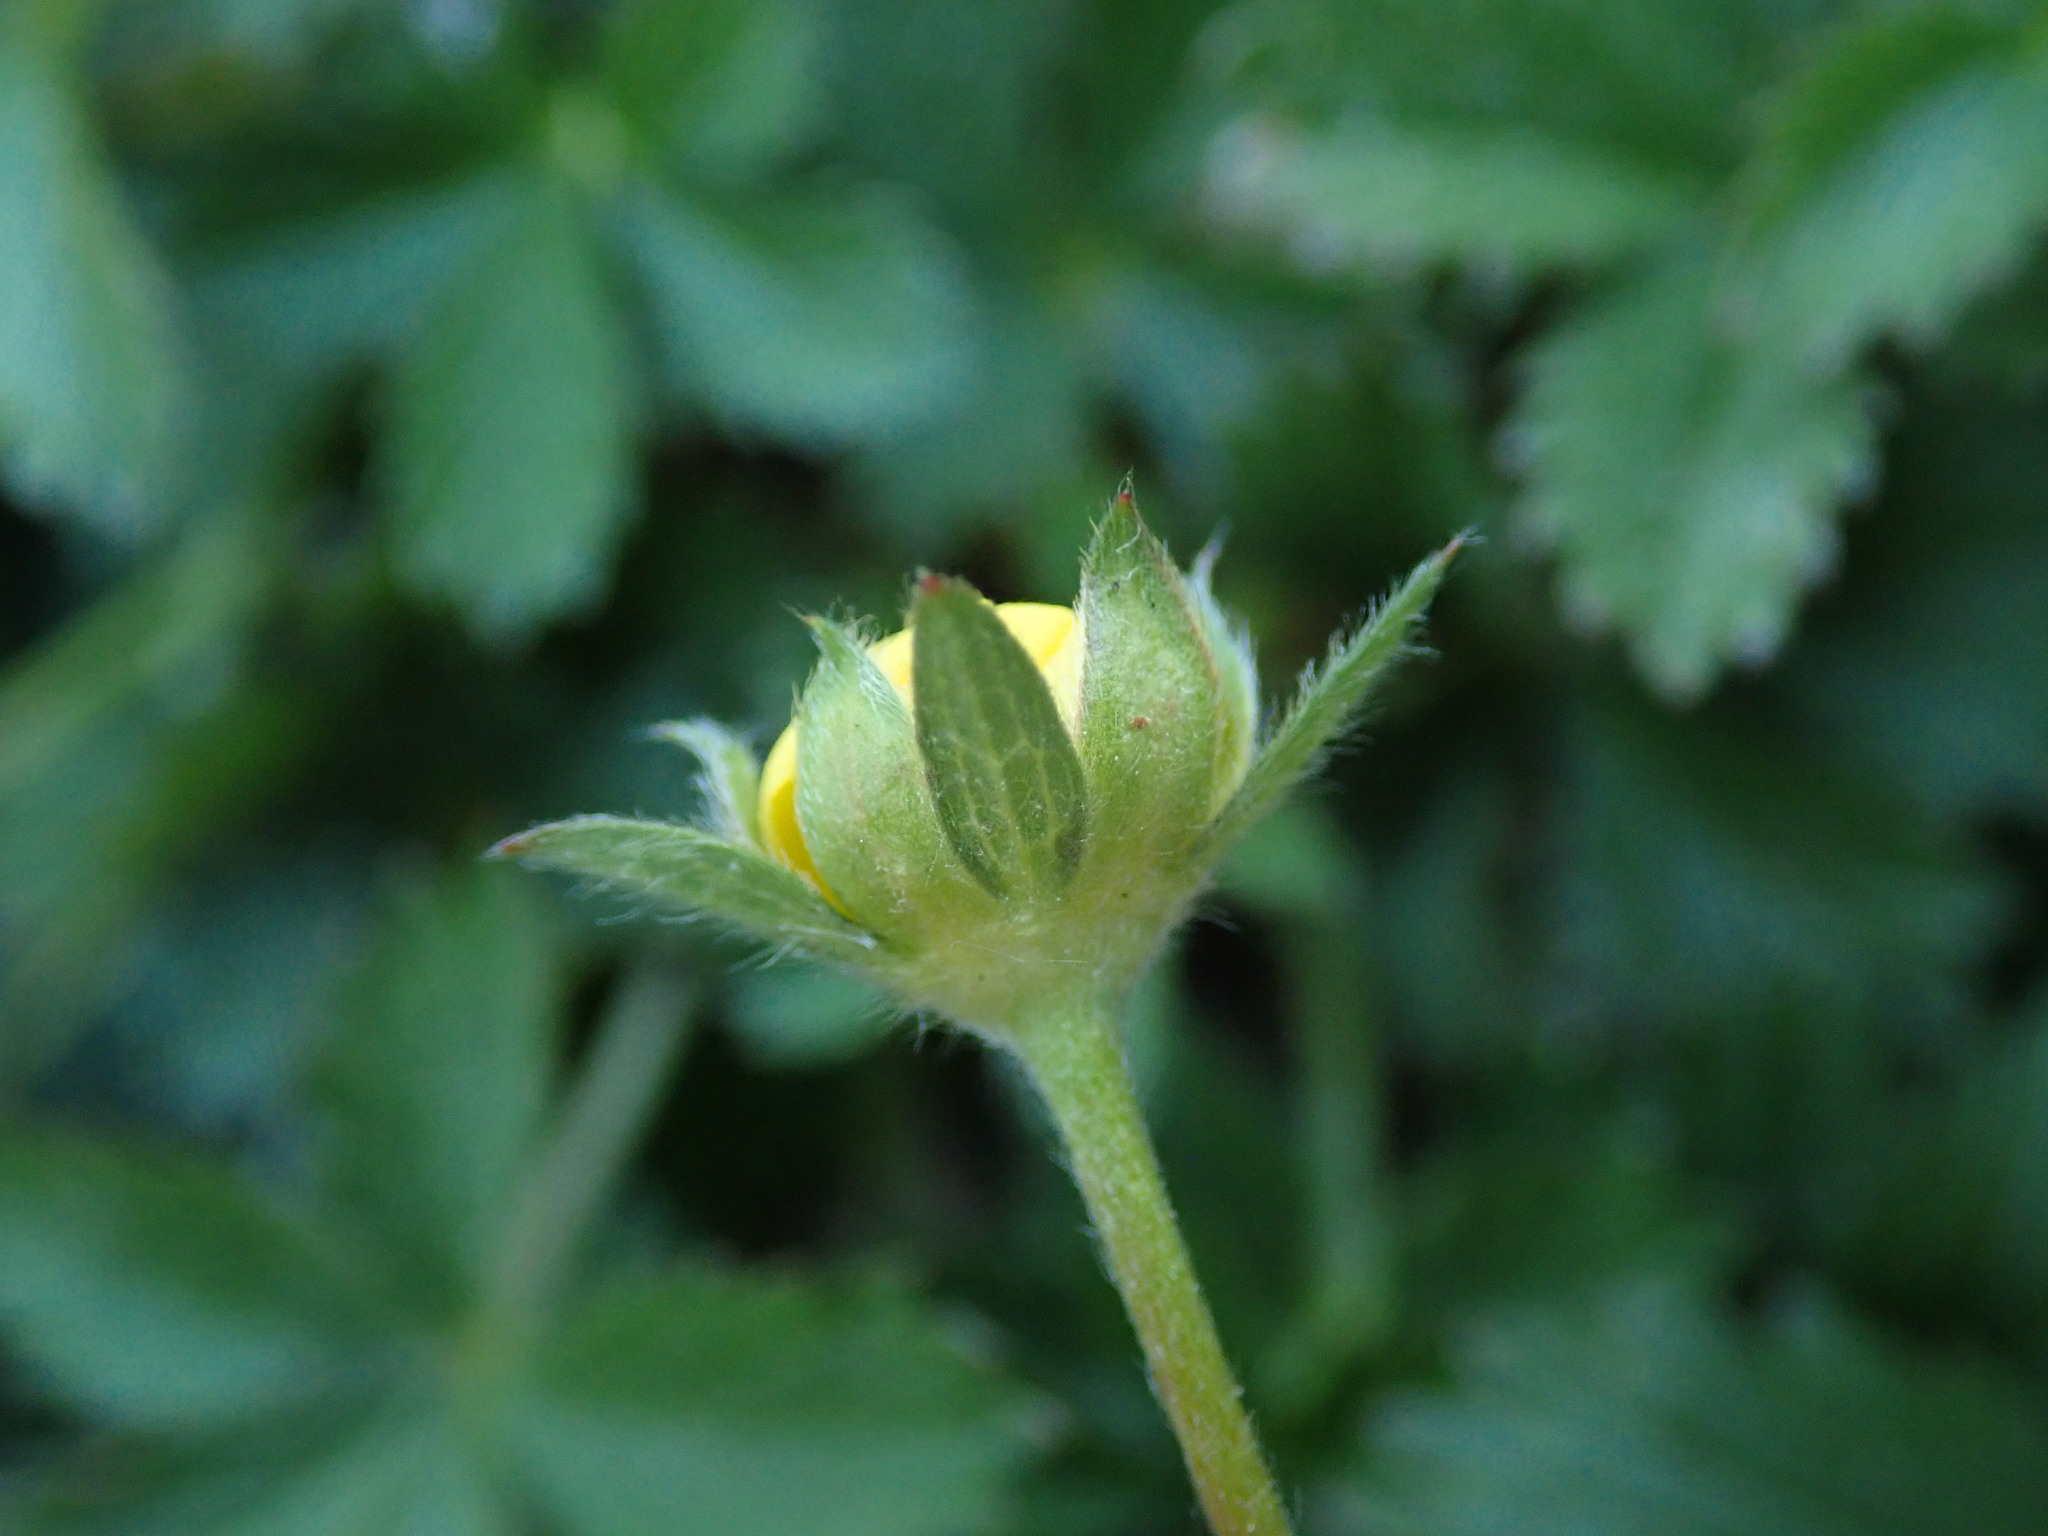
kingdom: Plantae
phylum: Tracheophyta
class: Magnoliopsida
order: Rosales
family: Rosaceae
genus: Potentilla
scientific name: Potentilla reptans
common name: Creeping cinquefoil
